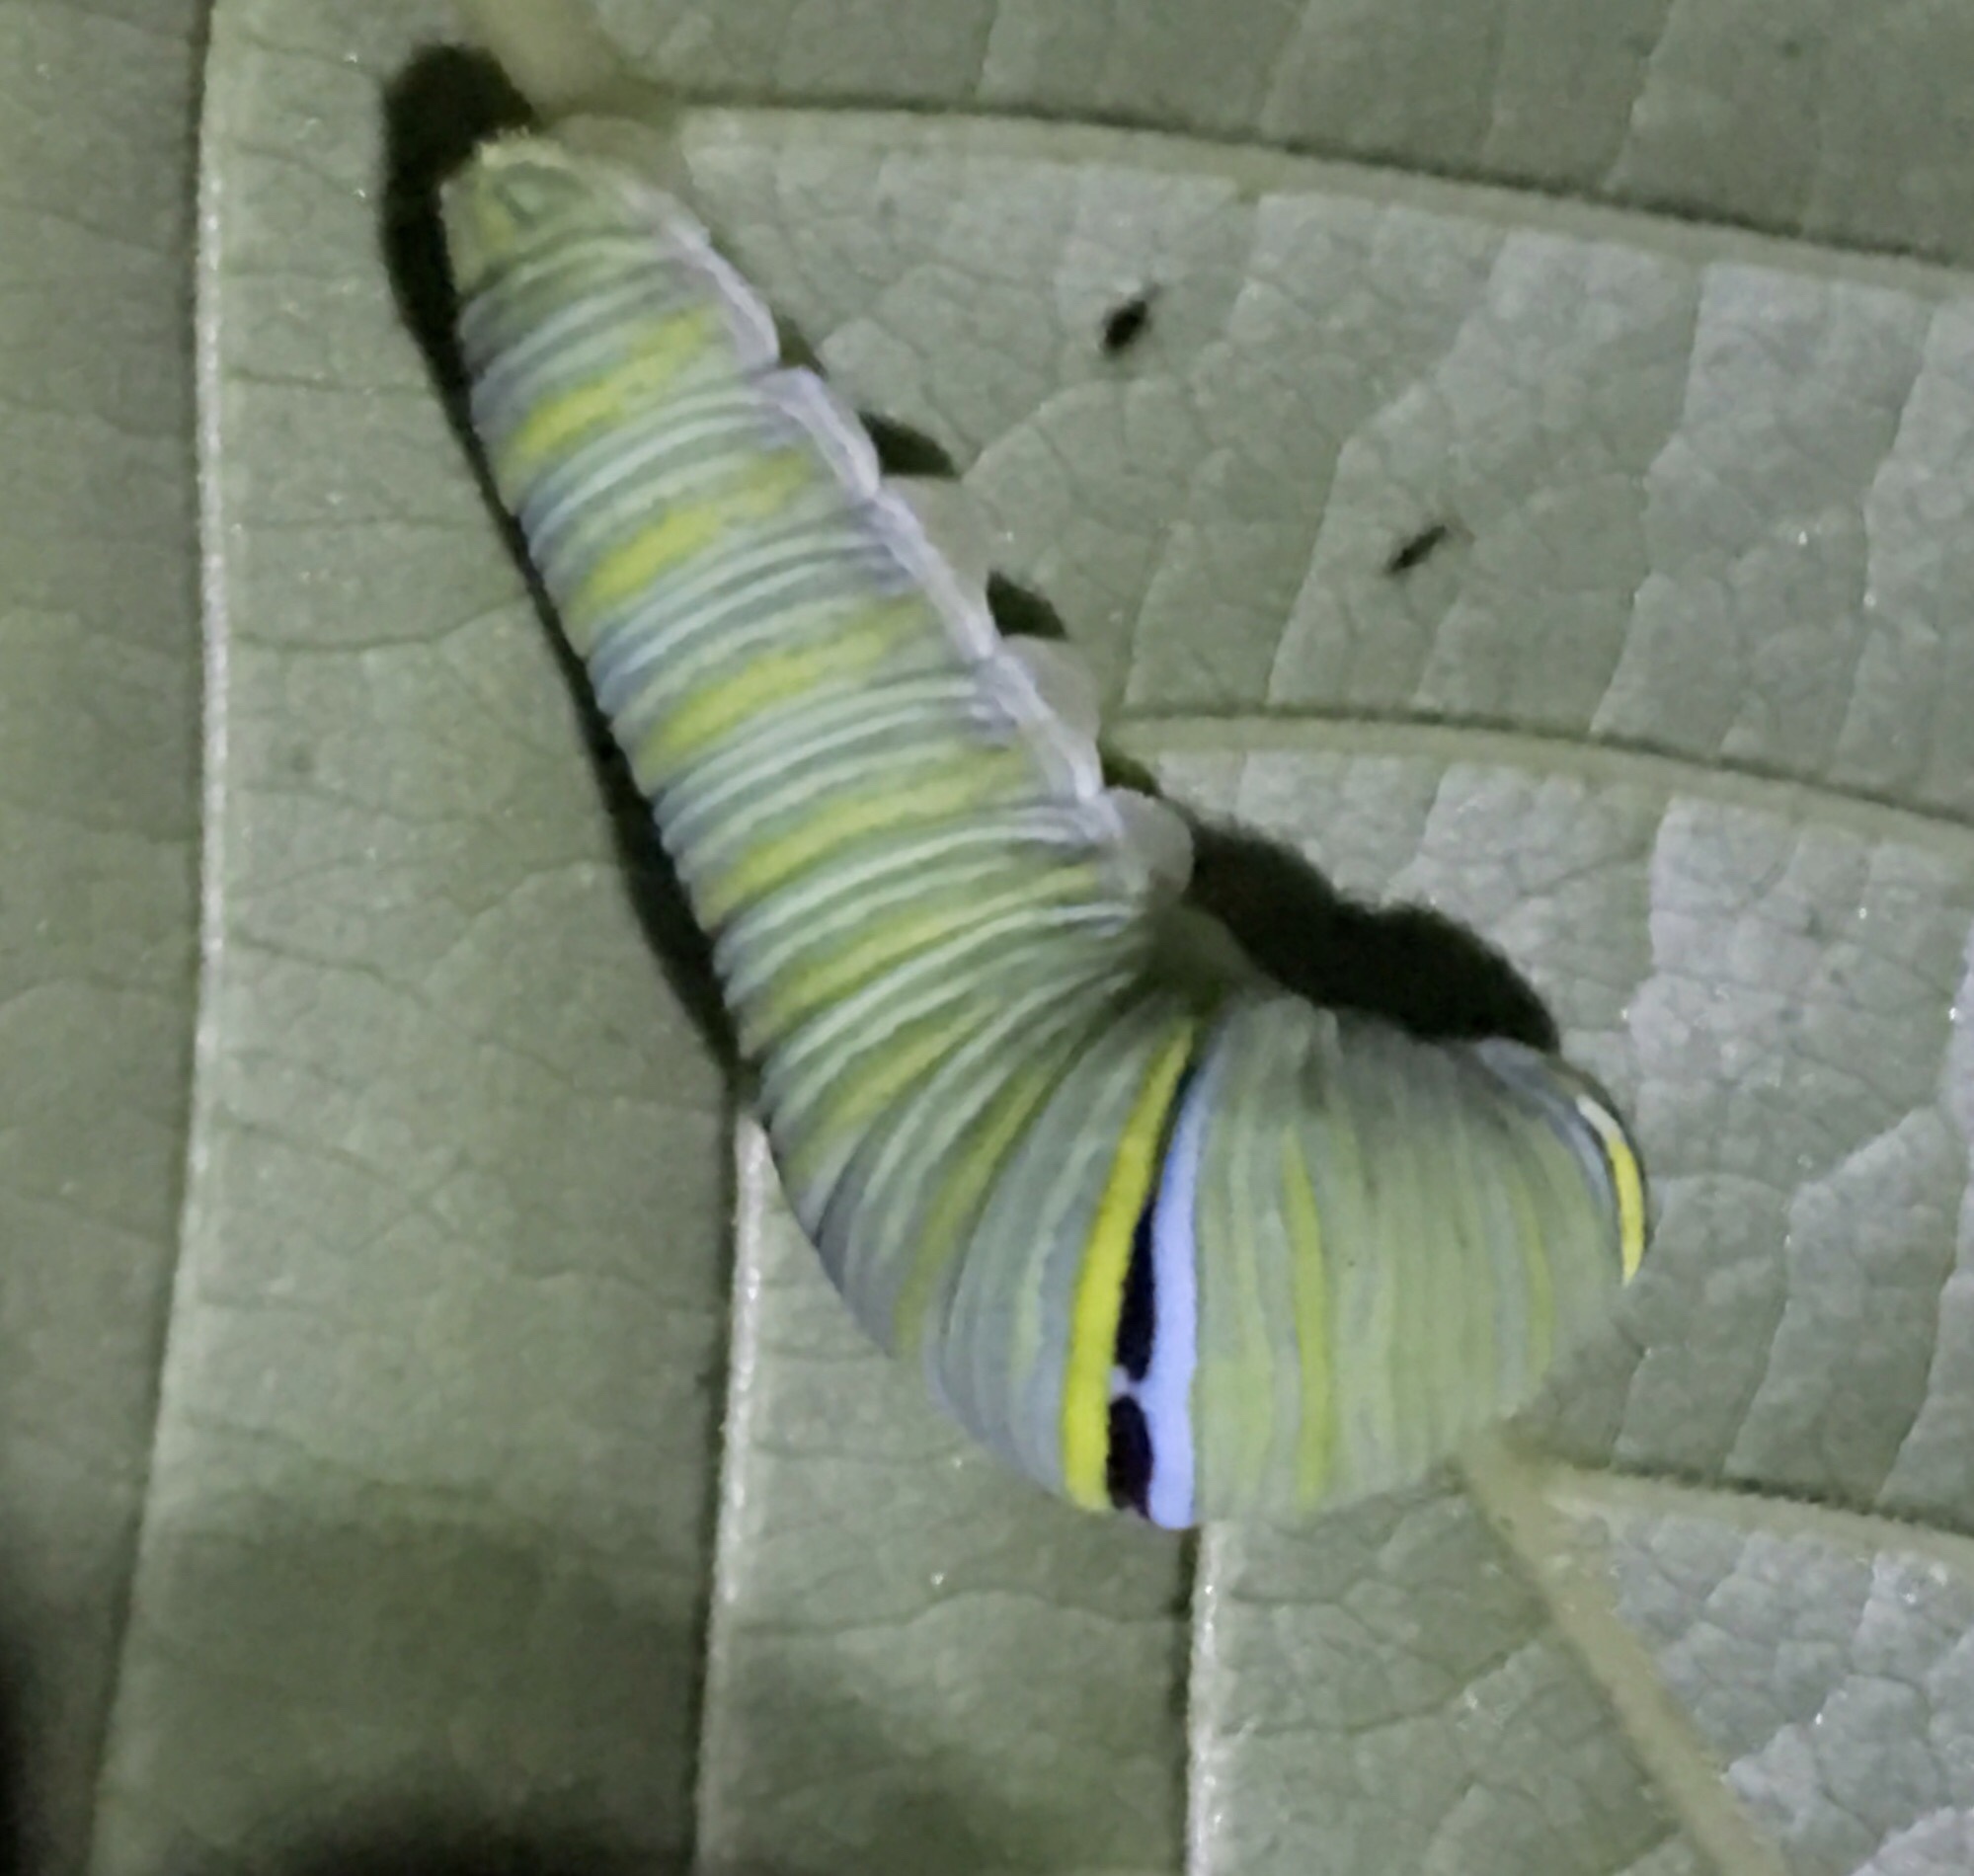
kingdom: Animalia
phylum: Arthropoda
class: Insecta
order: Lepidoptera
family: Papilionidae
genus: Protographium
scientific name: Protographium marcellus
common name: Zebra swallowtail
